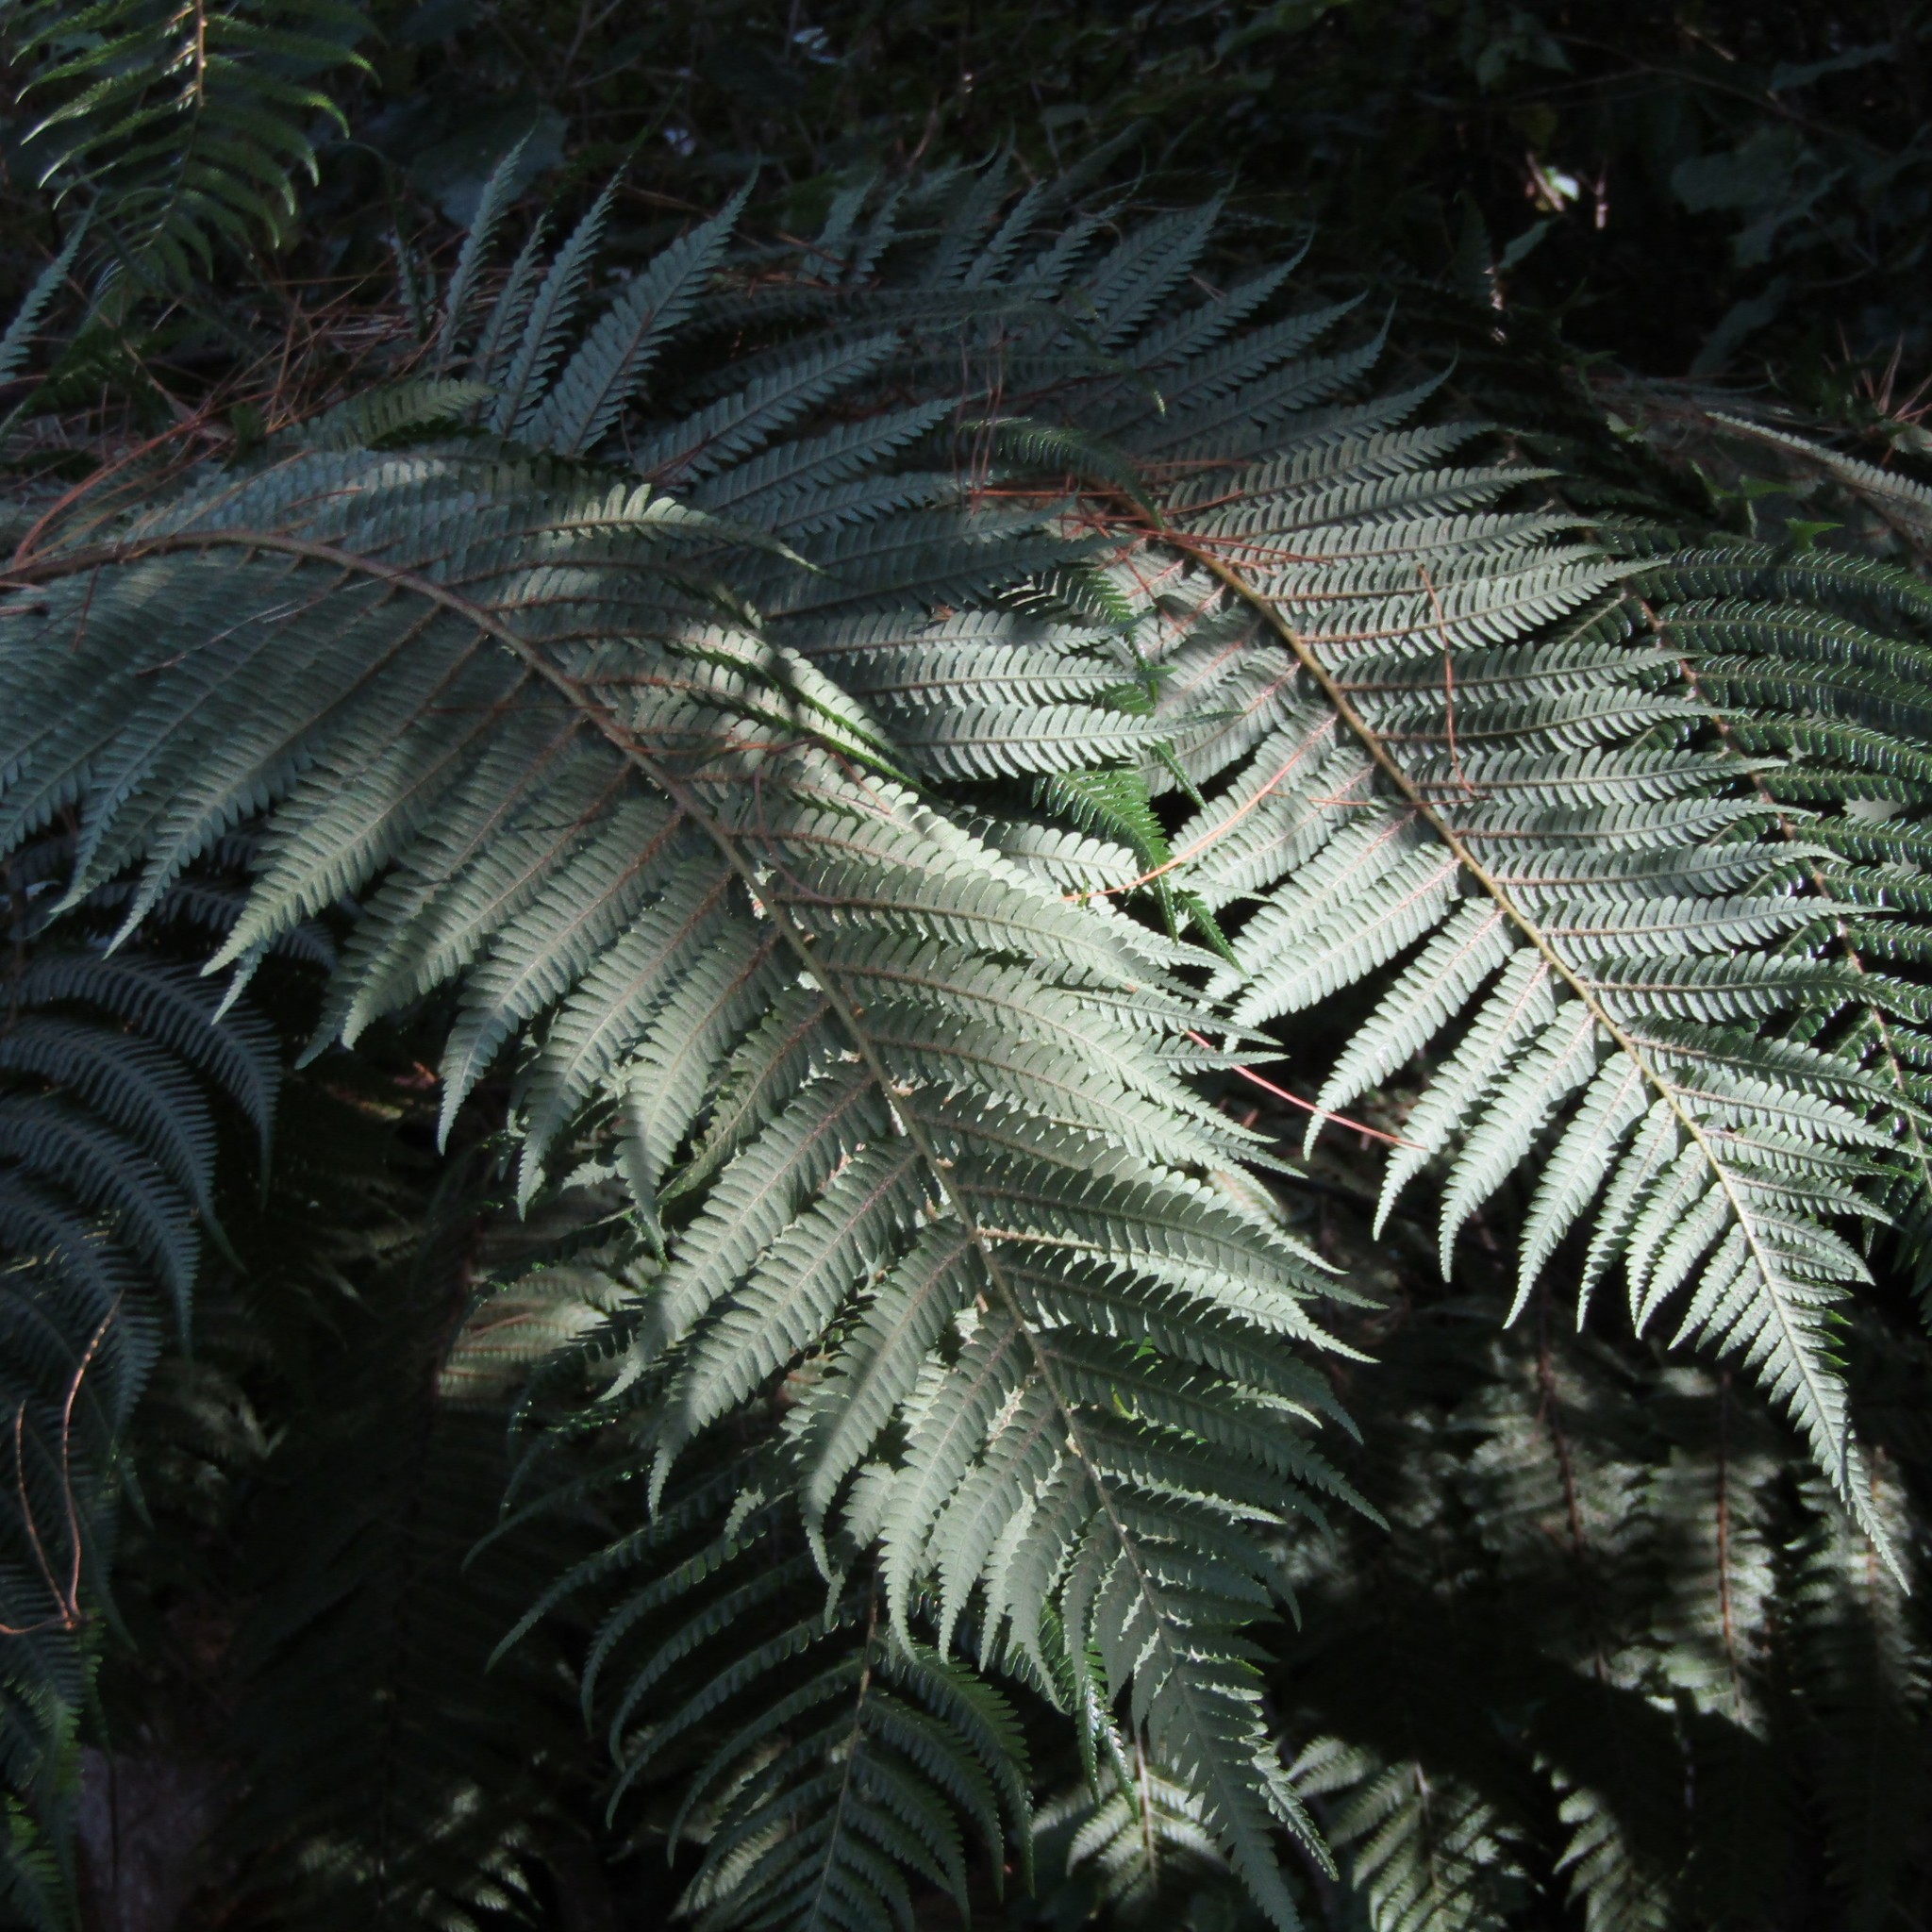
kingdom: Plantae
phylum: Tracheophyta
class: Polypodiopsida
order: Cyatheales
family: Cyatheaceae
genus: Alsophila
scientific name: Alsophila dealbata
